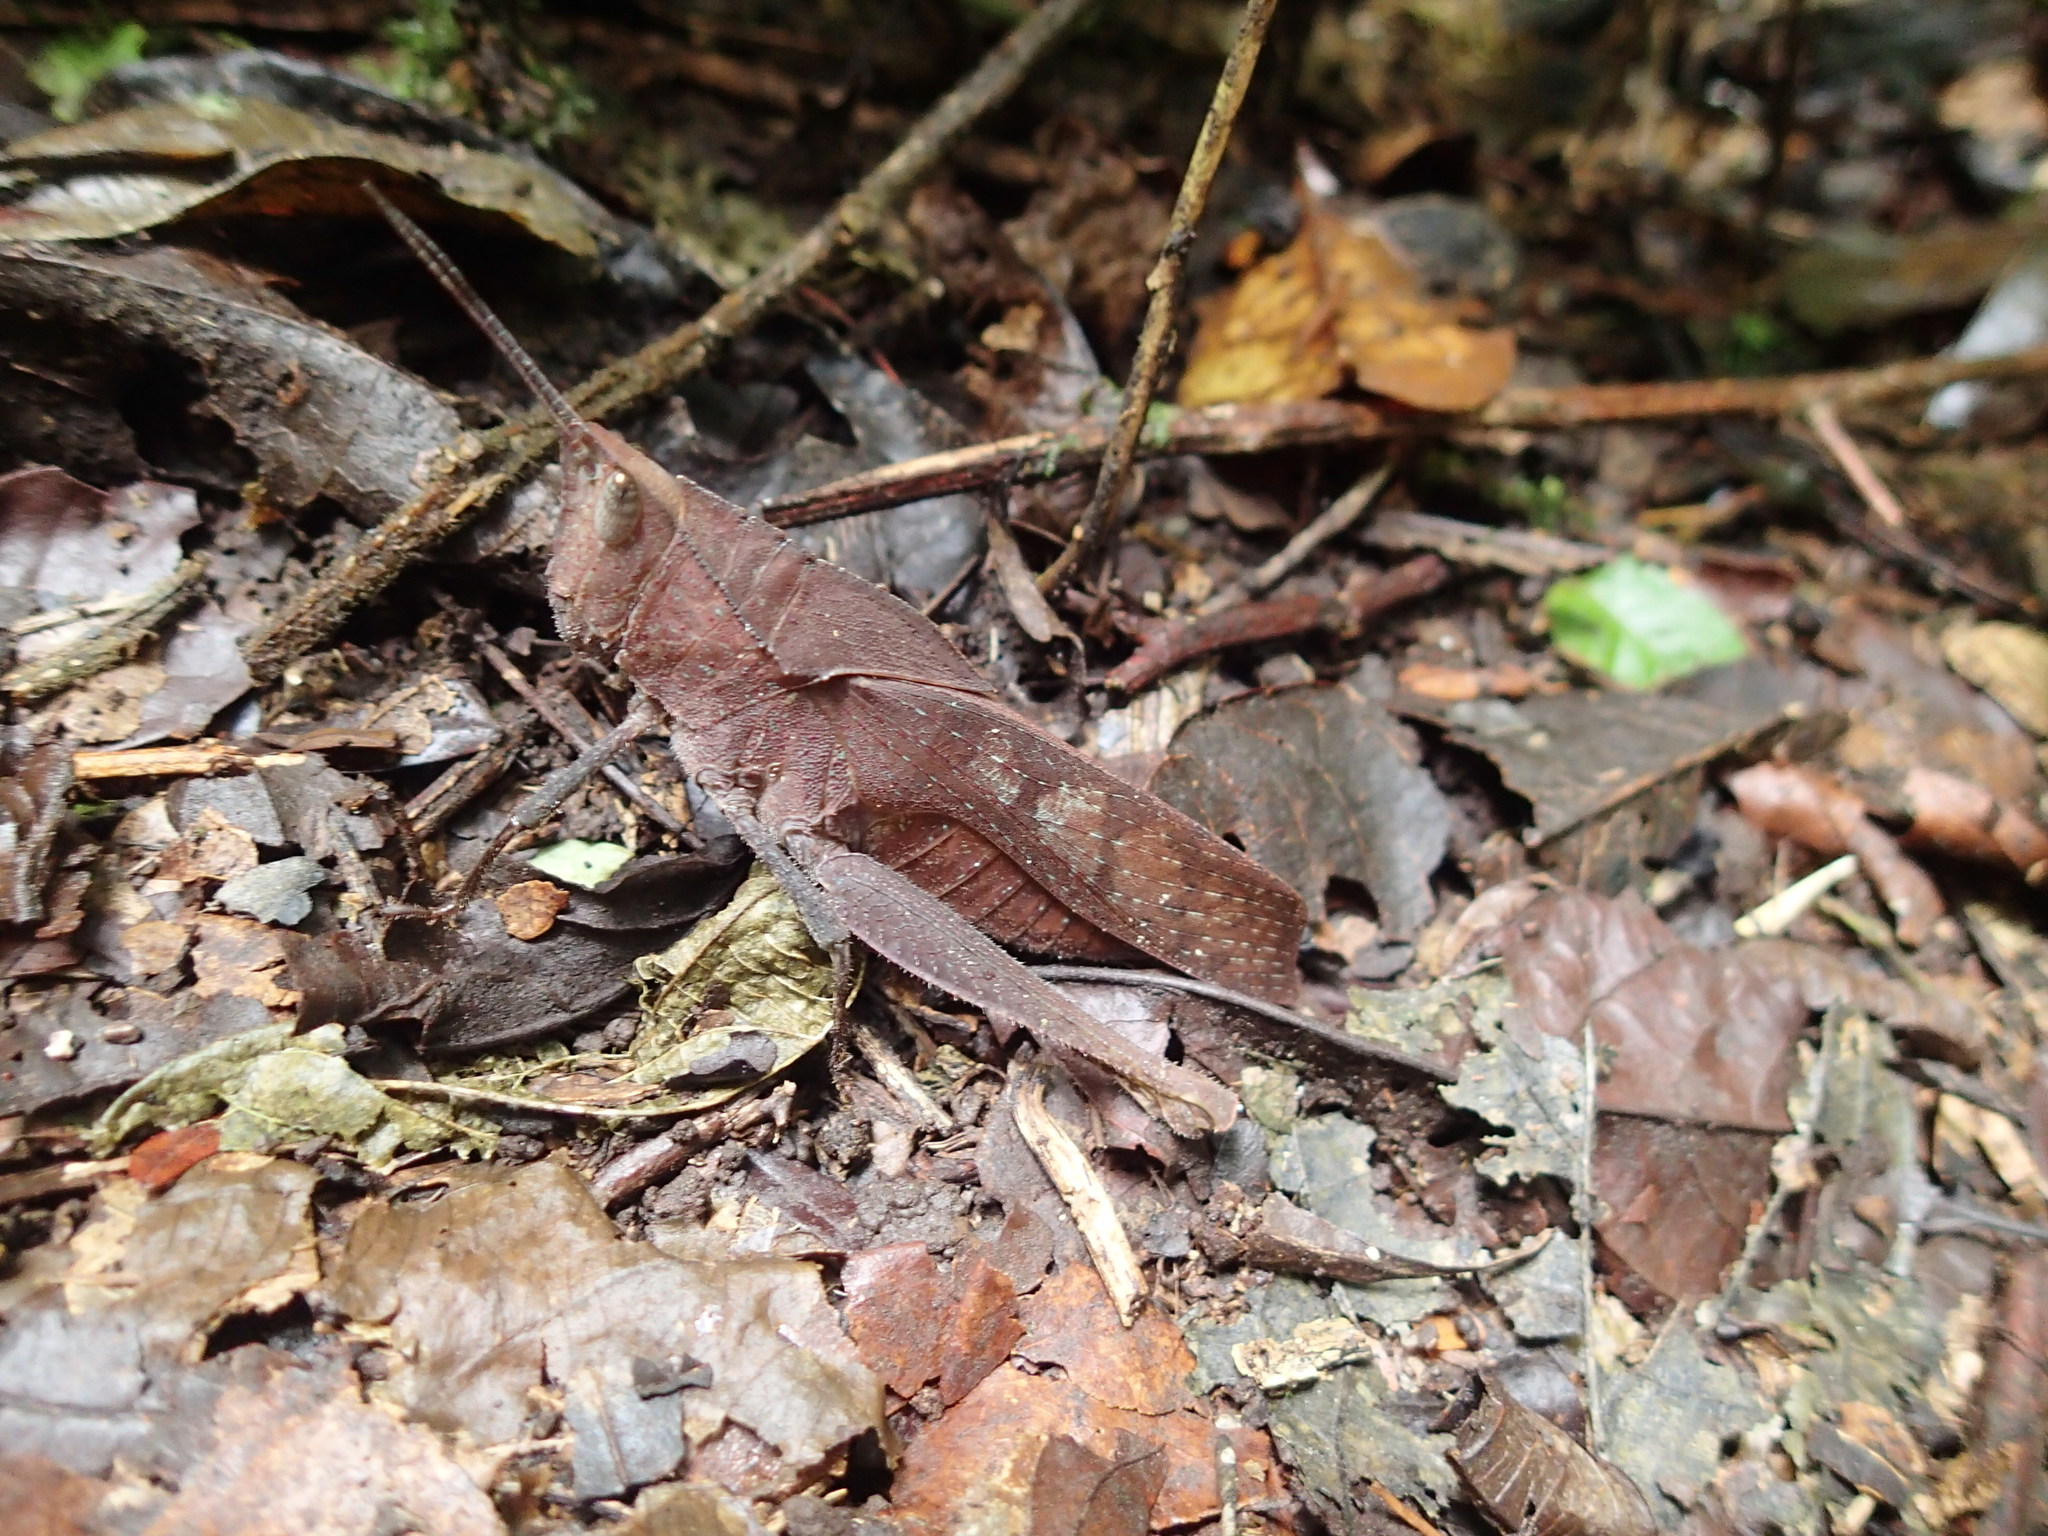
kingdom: Animalia
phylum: Arthropoda
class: Insecta
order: Orthoptera
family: Romaleidae
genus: Colpolopha
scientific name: Colpolopha latipennis
